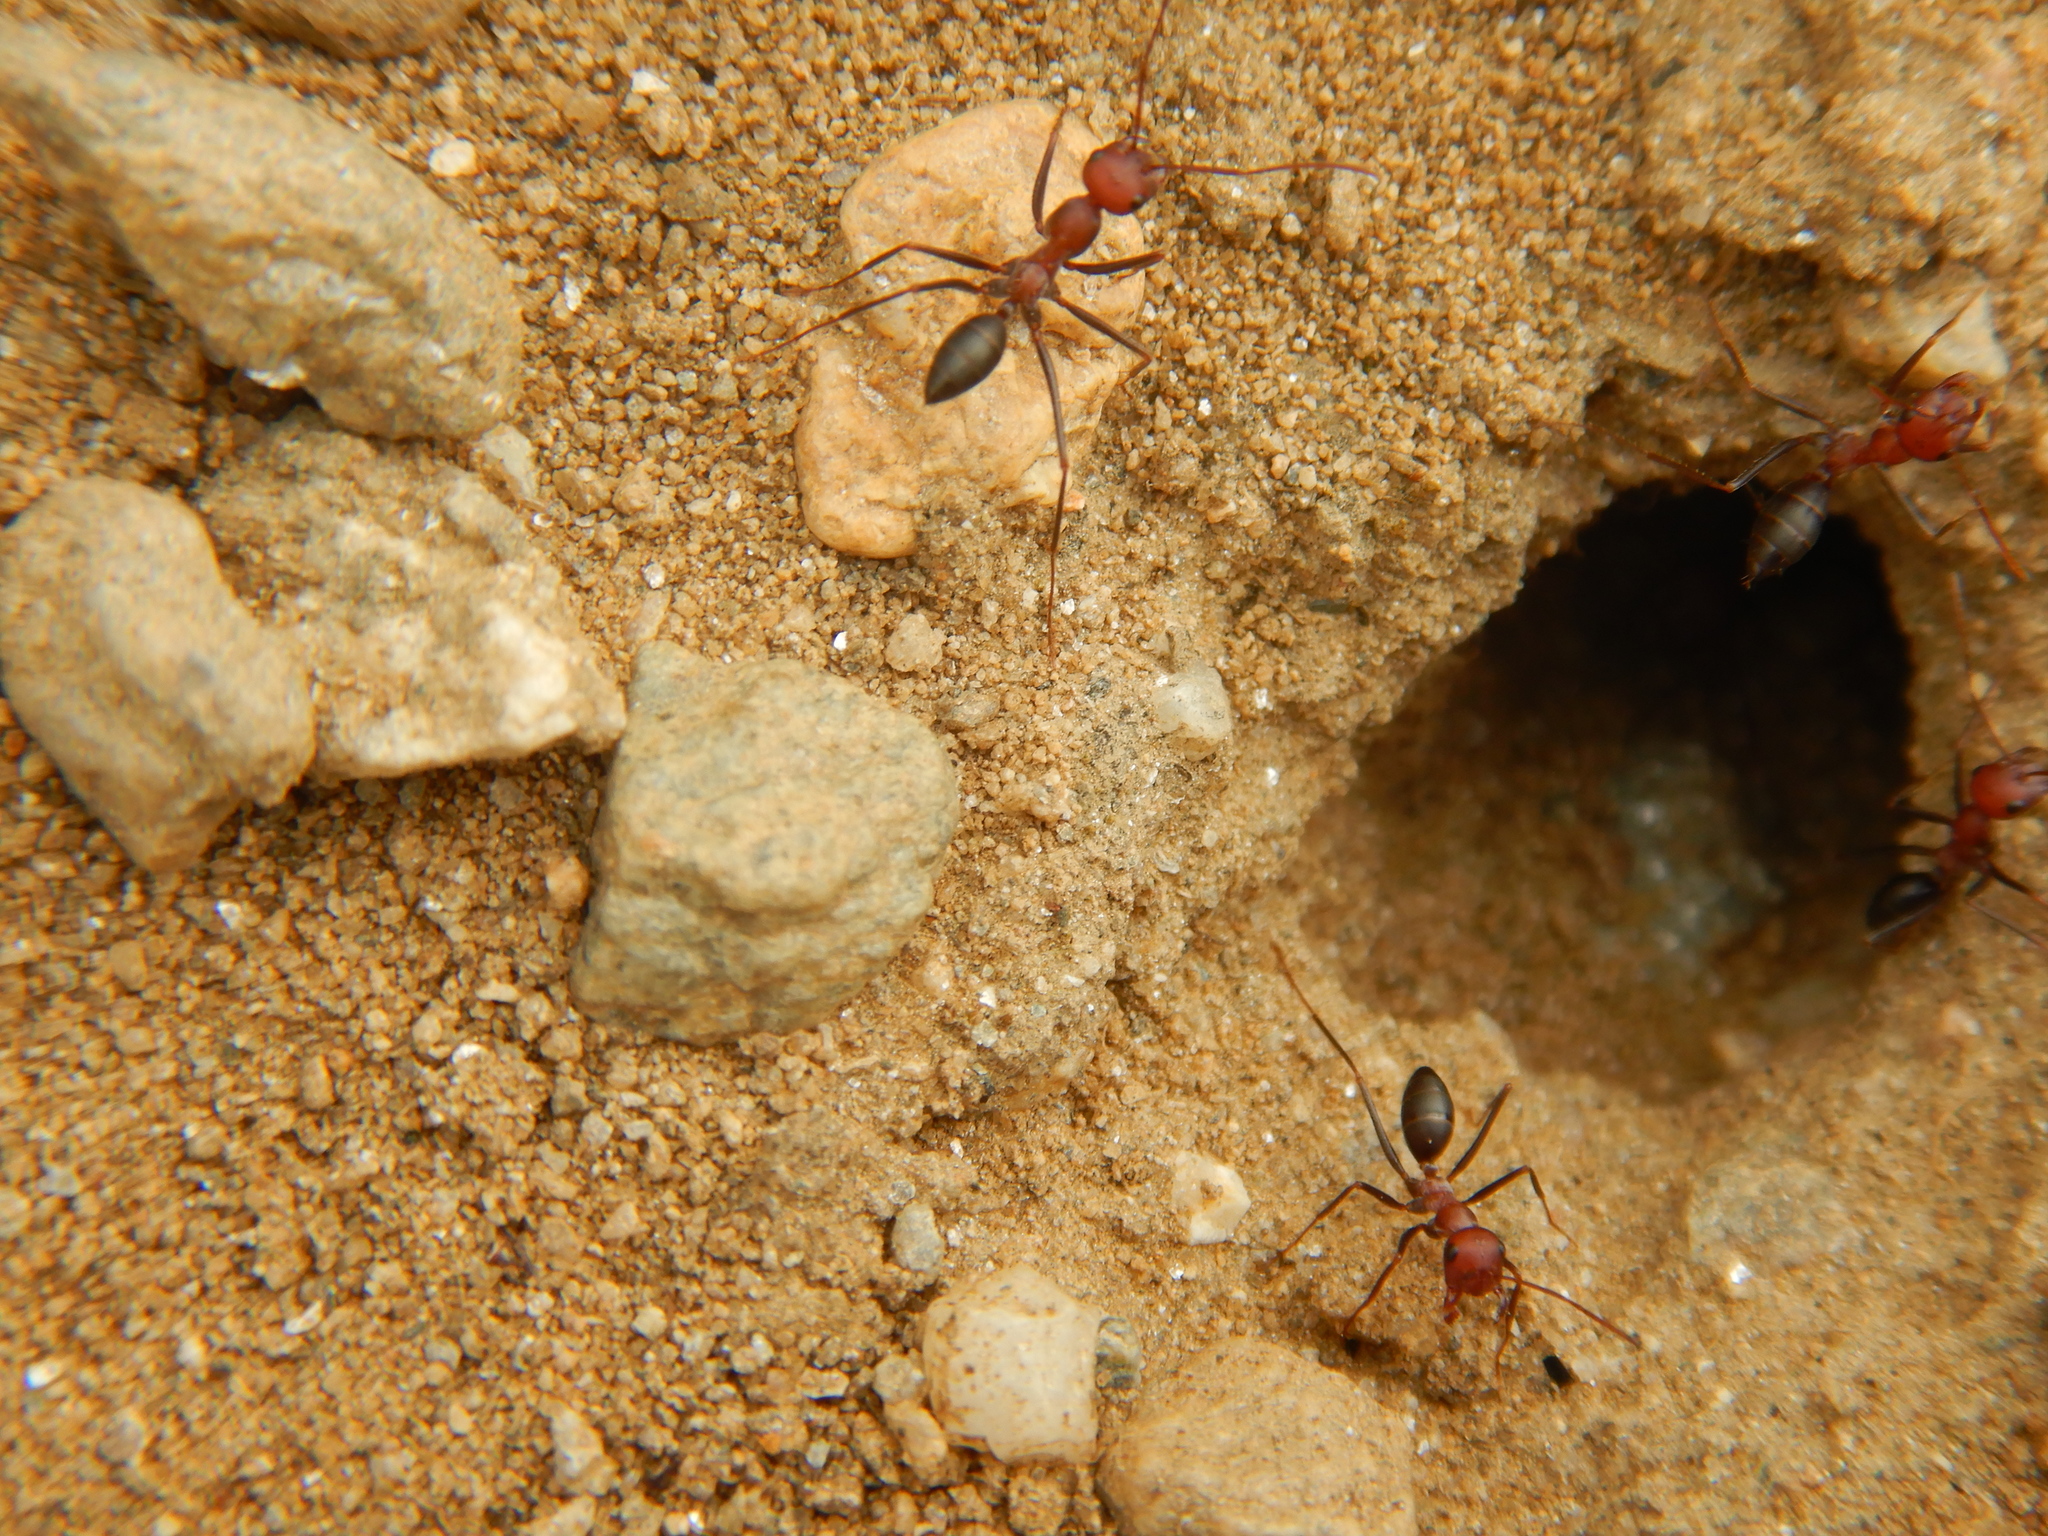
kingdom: Animalia
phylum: Arthropoda
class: Insecta
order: Hymenoptera
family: Formicidae
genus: Cataglyphis
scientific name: Cataglyphis nodus
